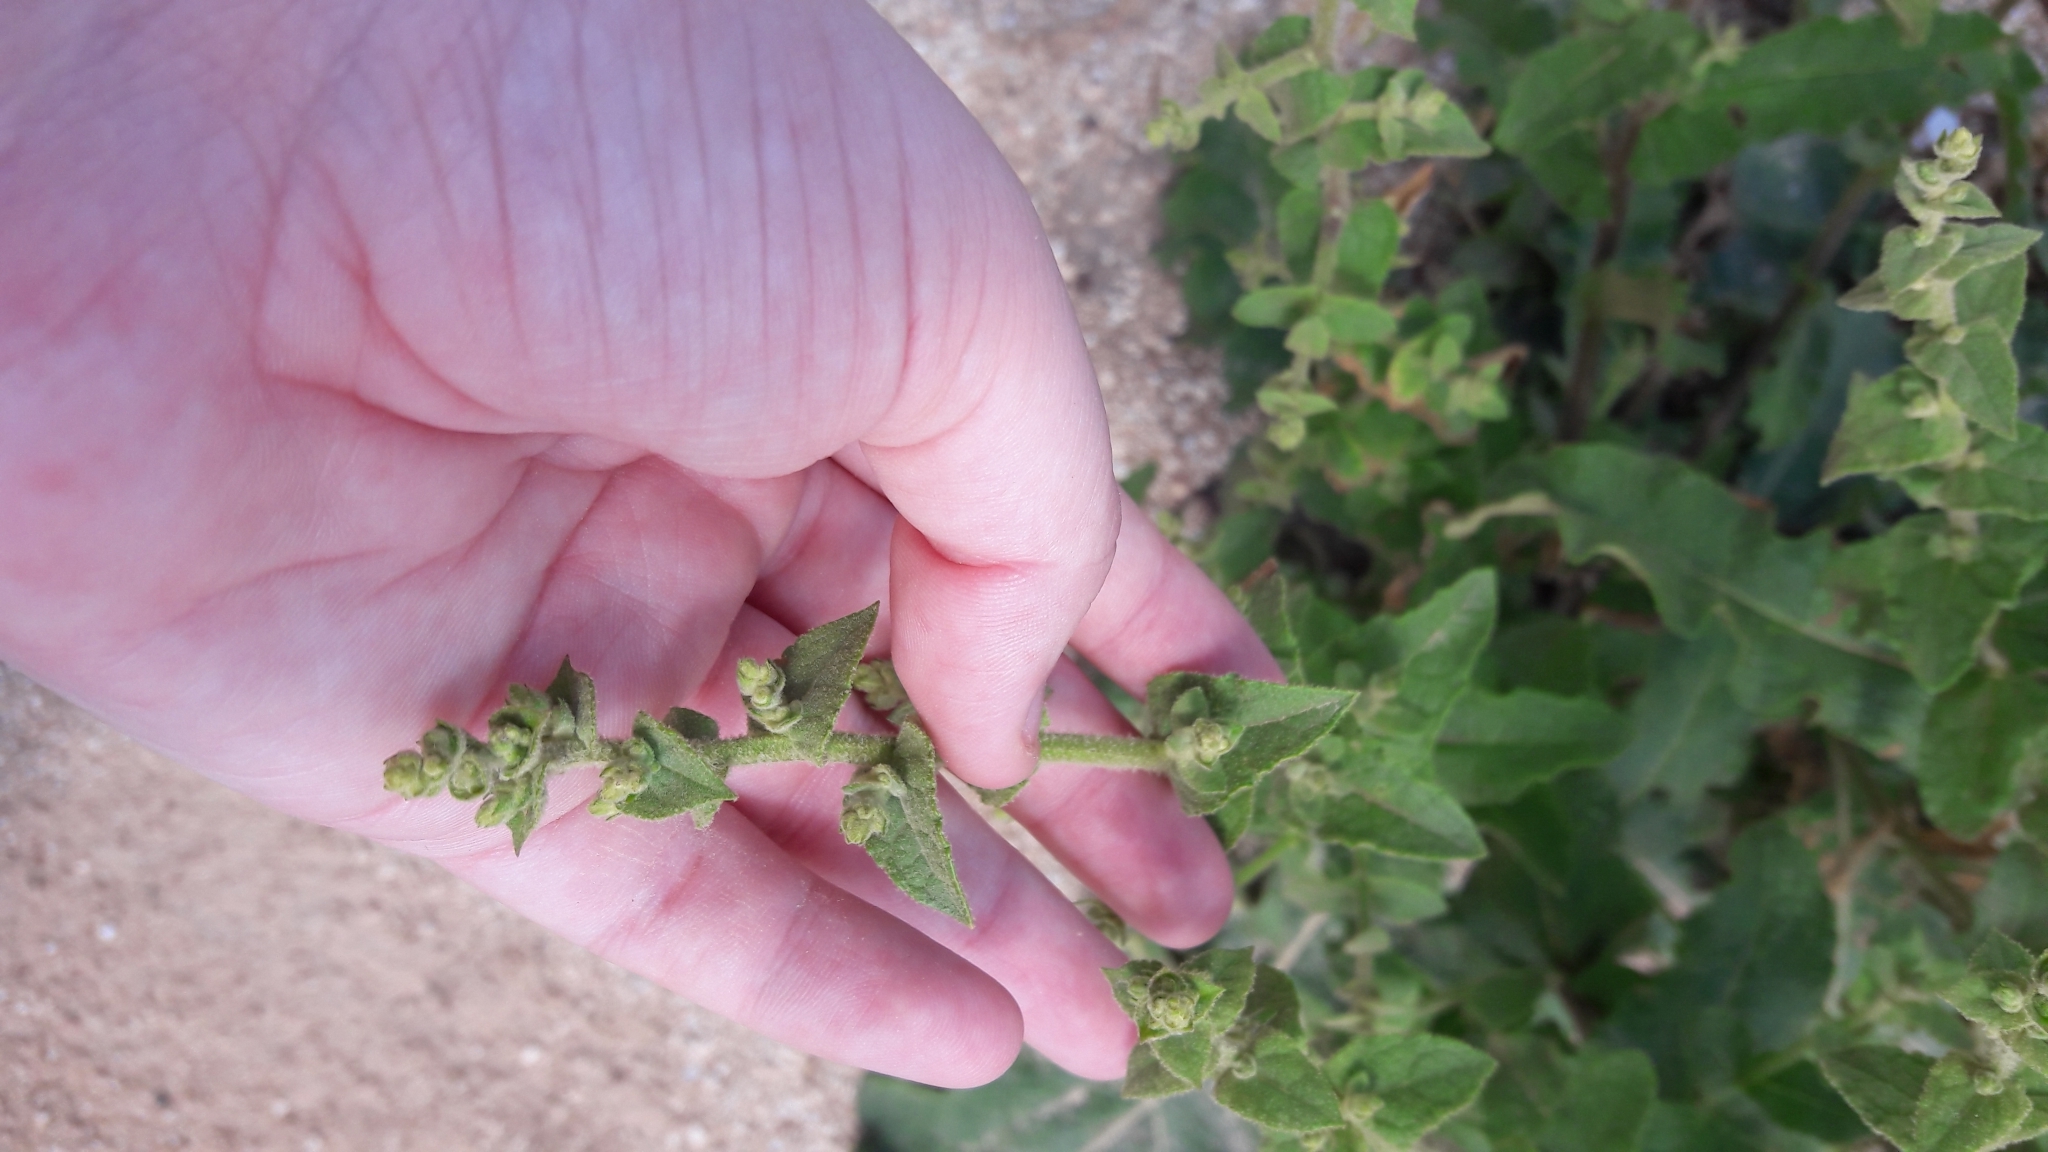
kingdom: Plantae
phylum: Tracheophyta
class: Magnoliopsida
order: Lamiales
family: Scrophulariaceae
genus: Verbascum
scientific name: Verbascum sinuatum
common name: Wavyleaf mullein
